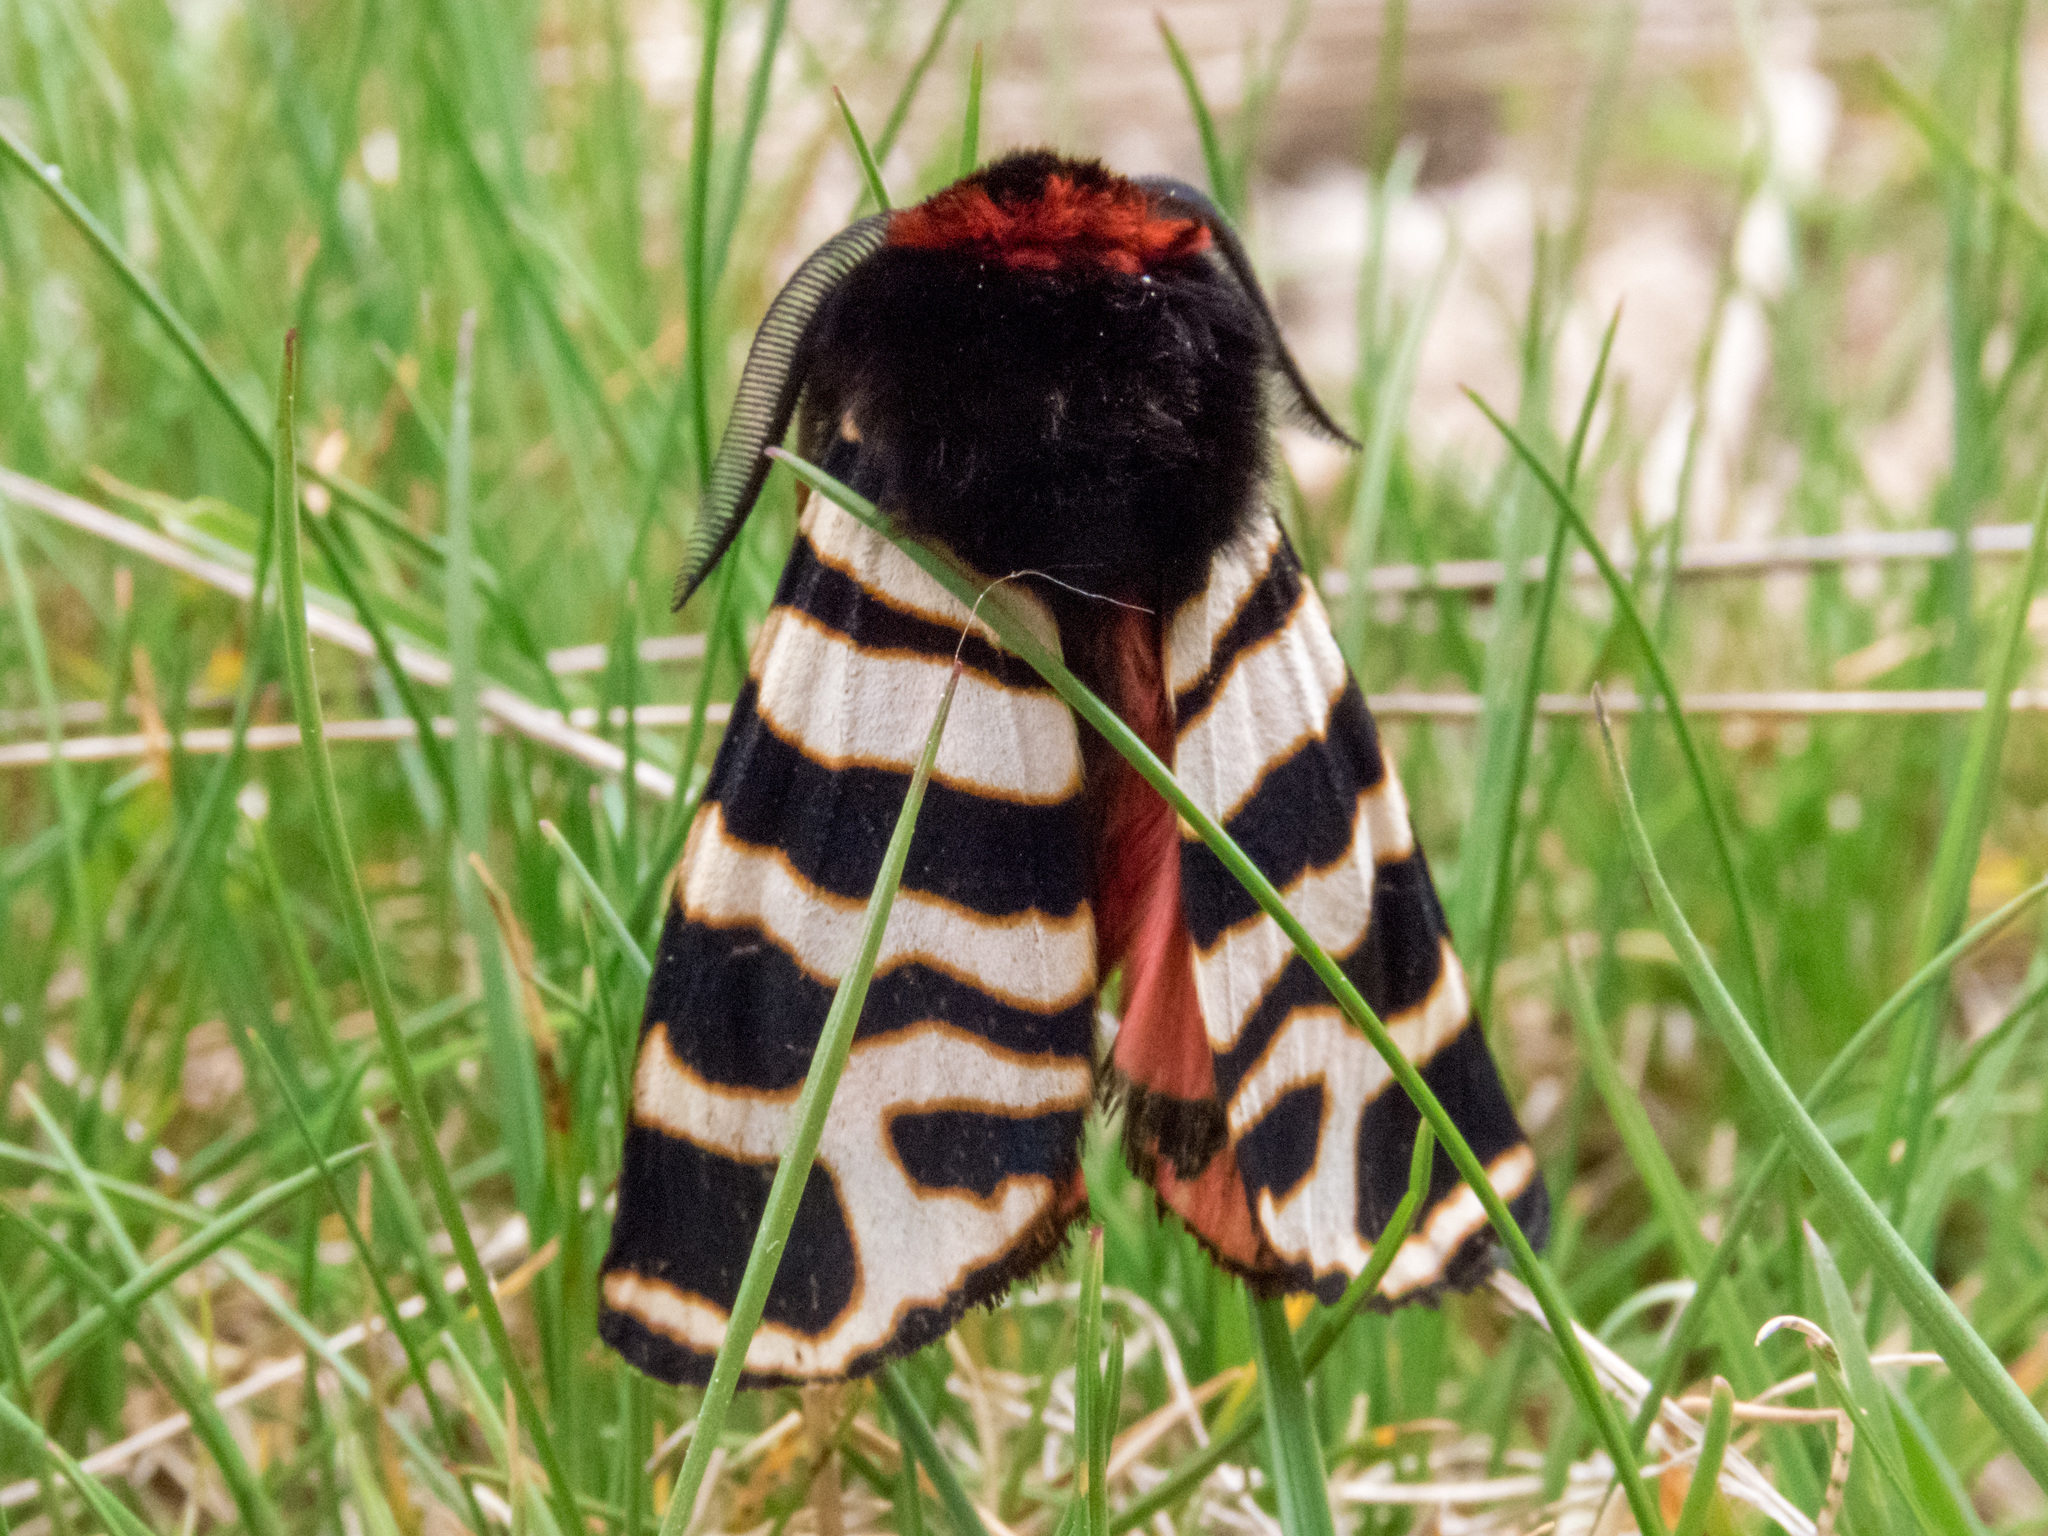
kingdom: Animalia
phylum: Arthropoda
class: Insecta
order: Lepidoptera
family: Erebidae
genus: Eucharia
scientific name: Eucharia festiva
